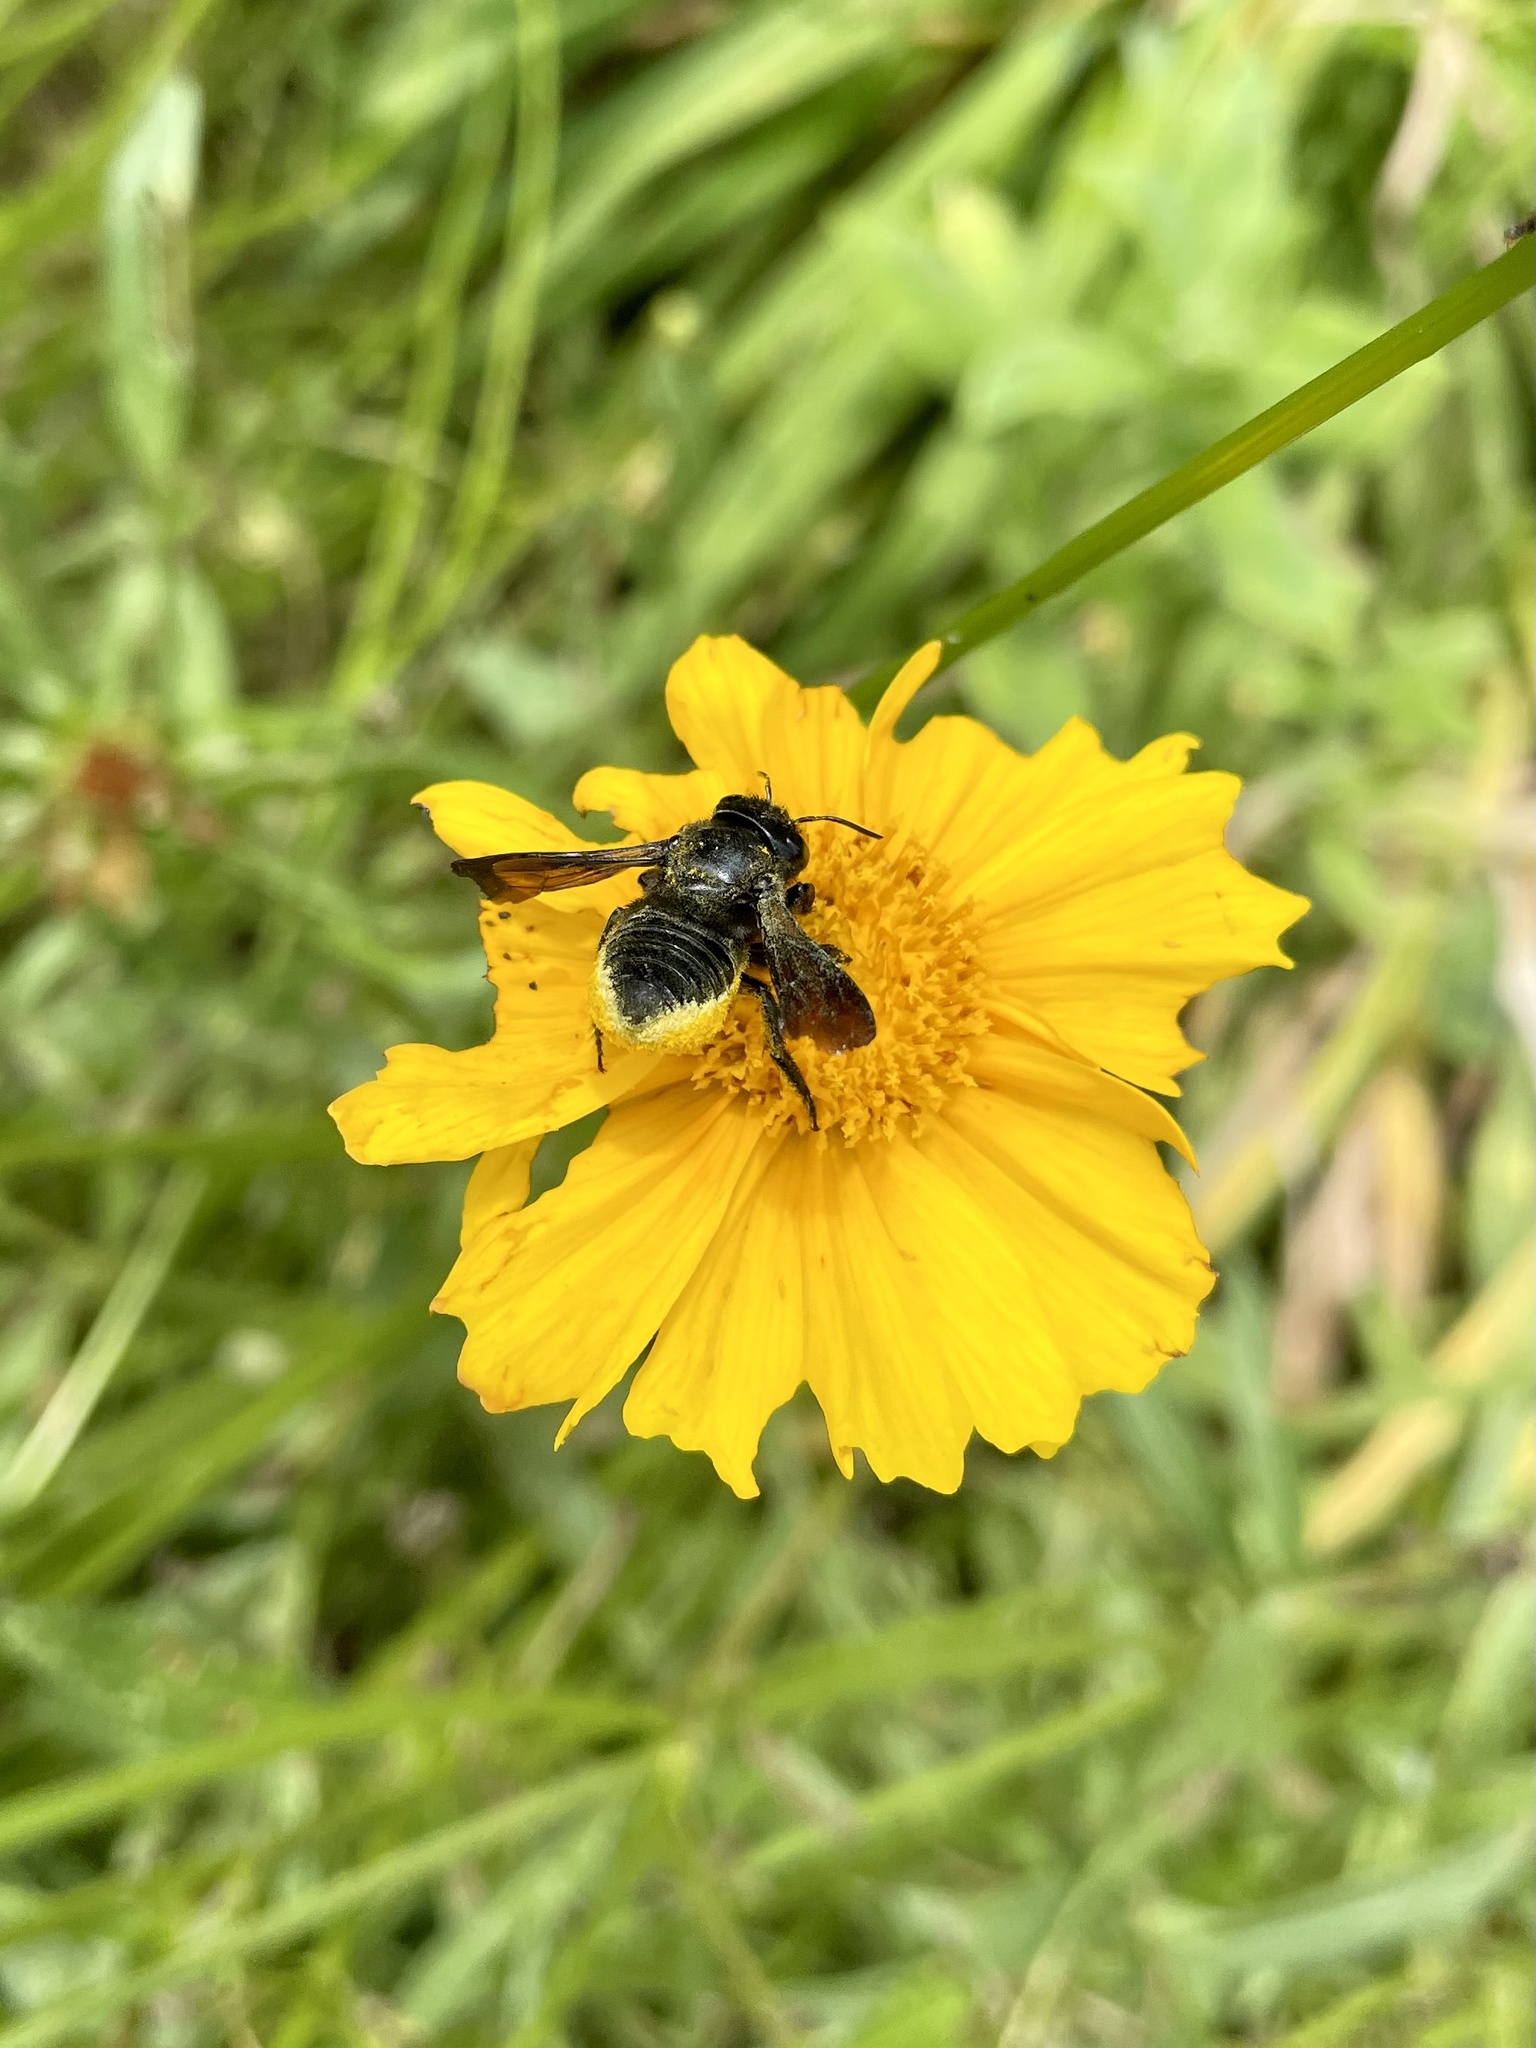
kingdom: Animalia
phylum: Arthropoda
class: Insecta
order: Hymenoptera
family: Megachilidae
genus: Megachile
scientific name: Megachile xylocopoides
